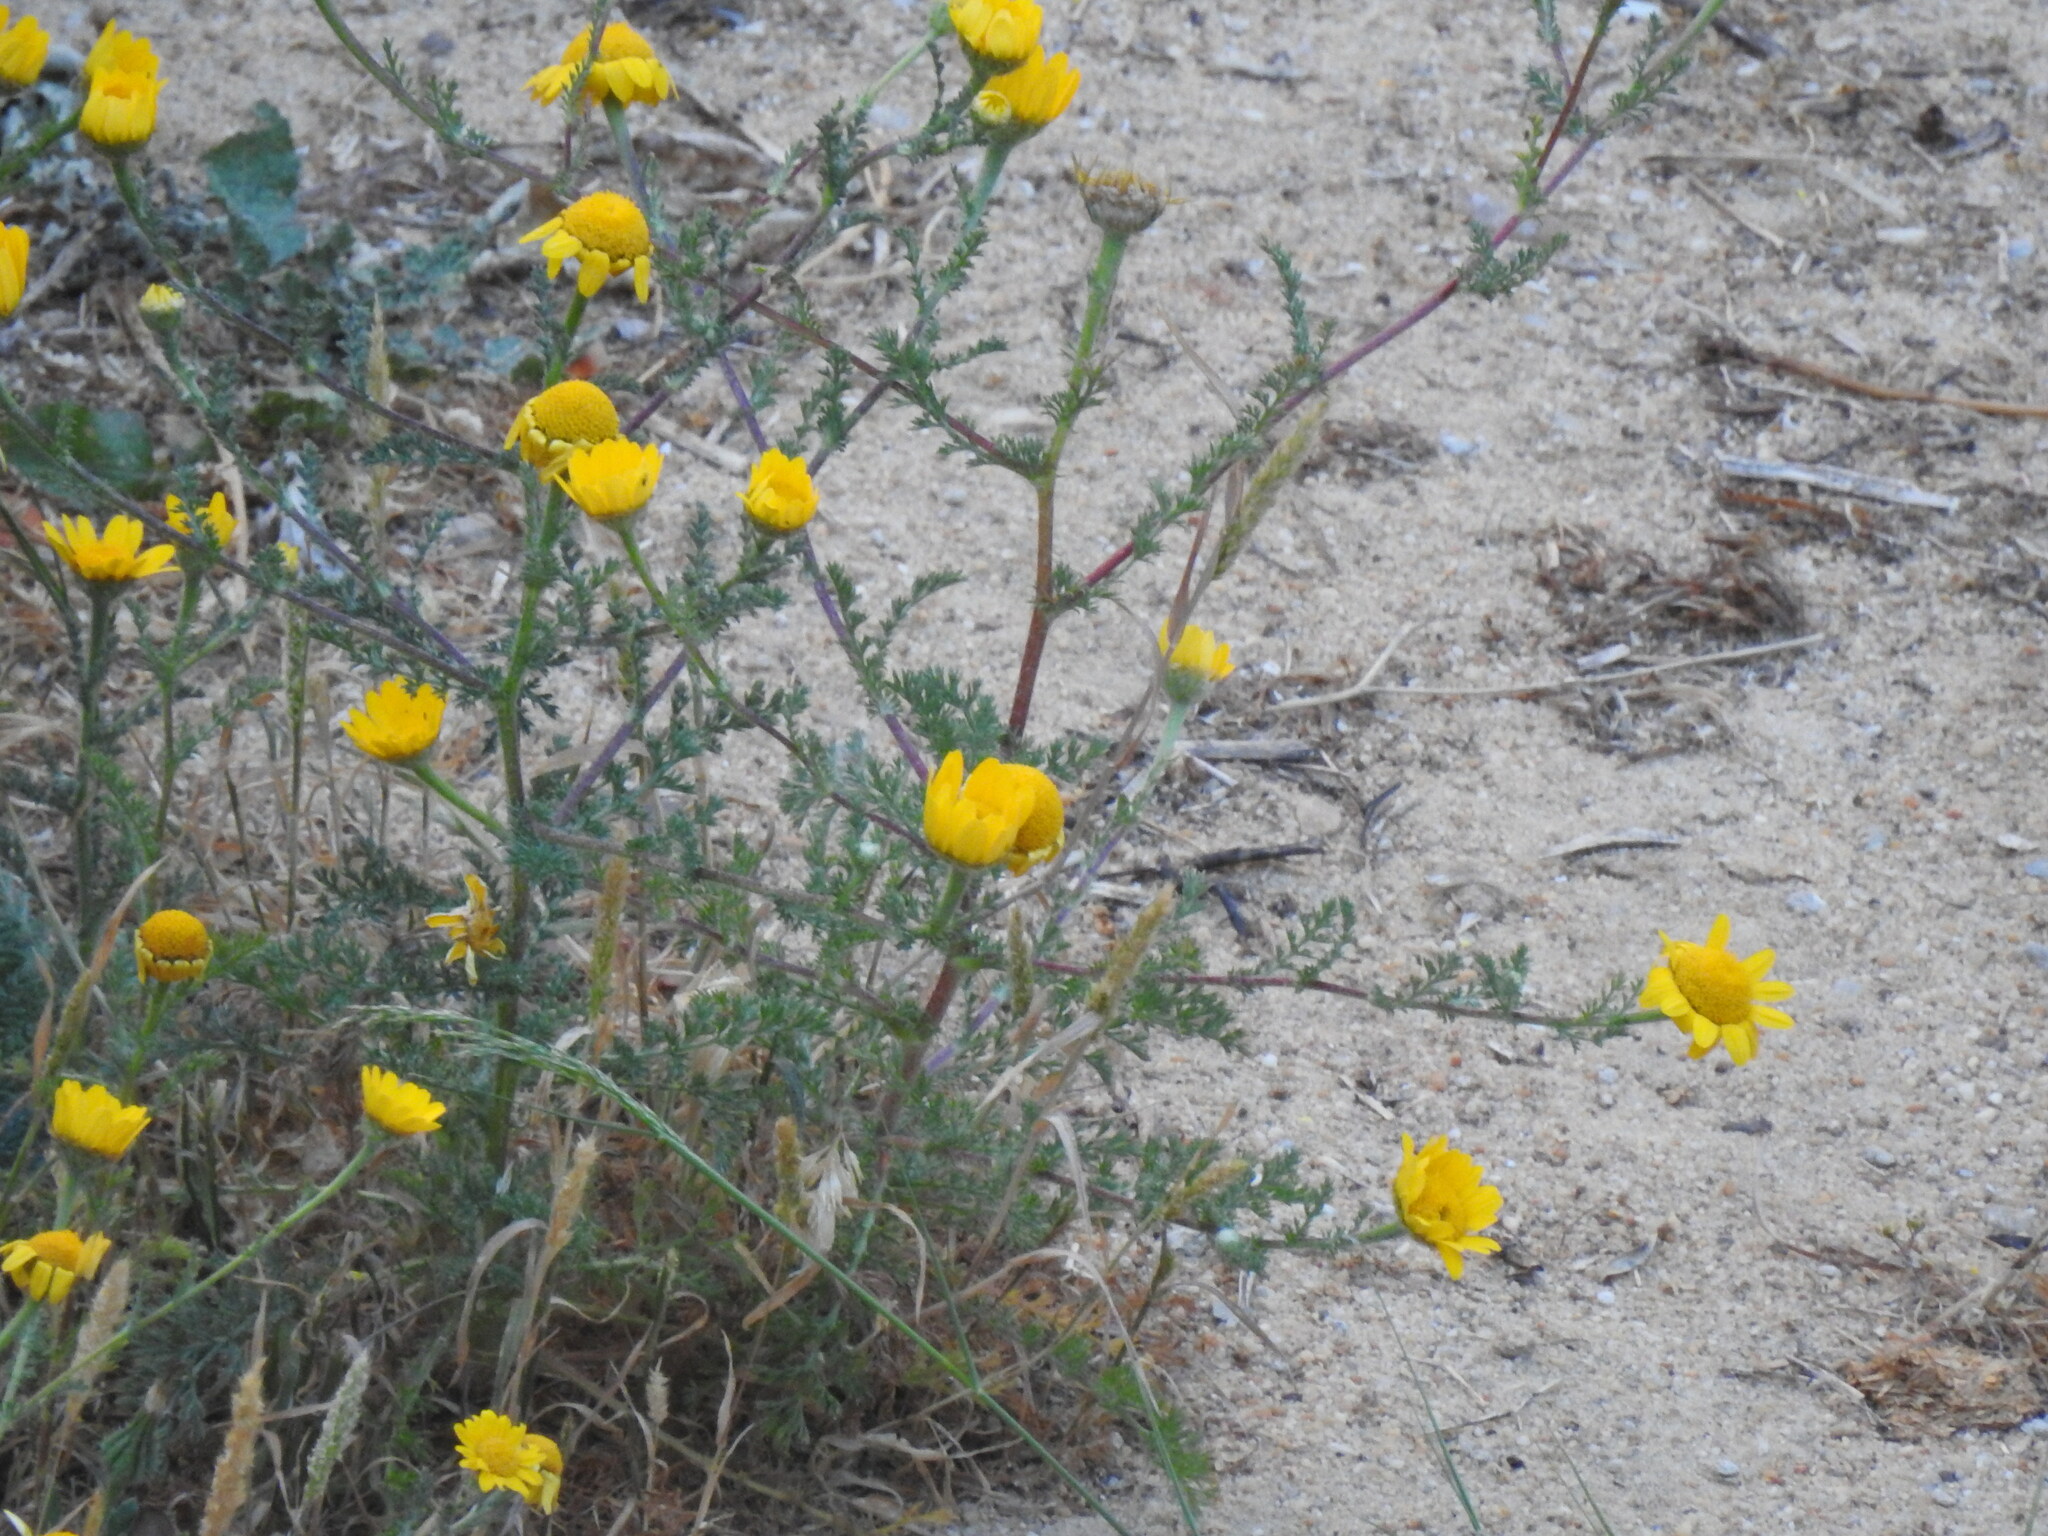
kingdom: Plantae
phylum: Tracheophyta
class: Magnoliopsida
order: Asterales
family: Asteraceae
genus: Anacyclus
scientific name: Anacyclus radiatus
